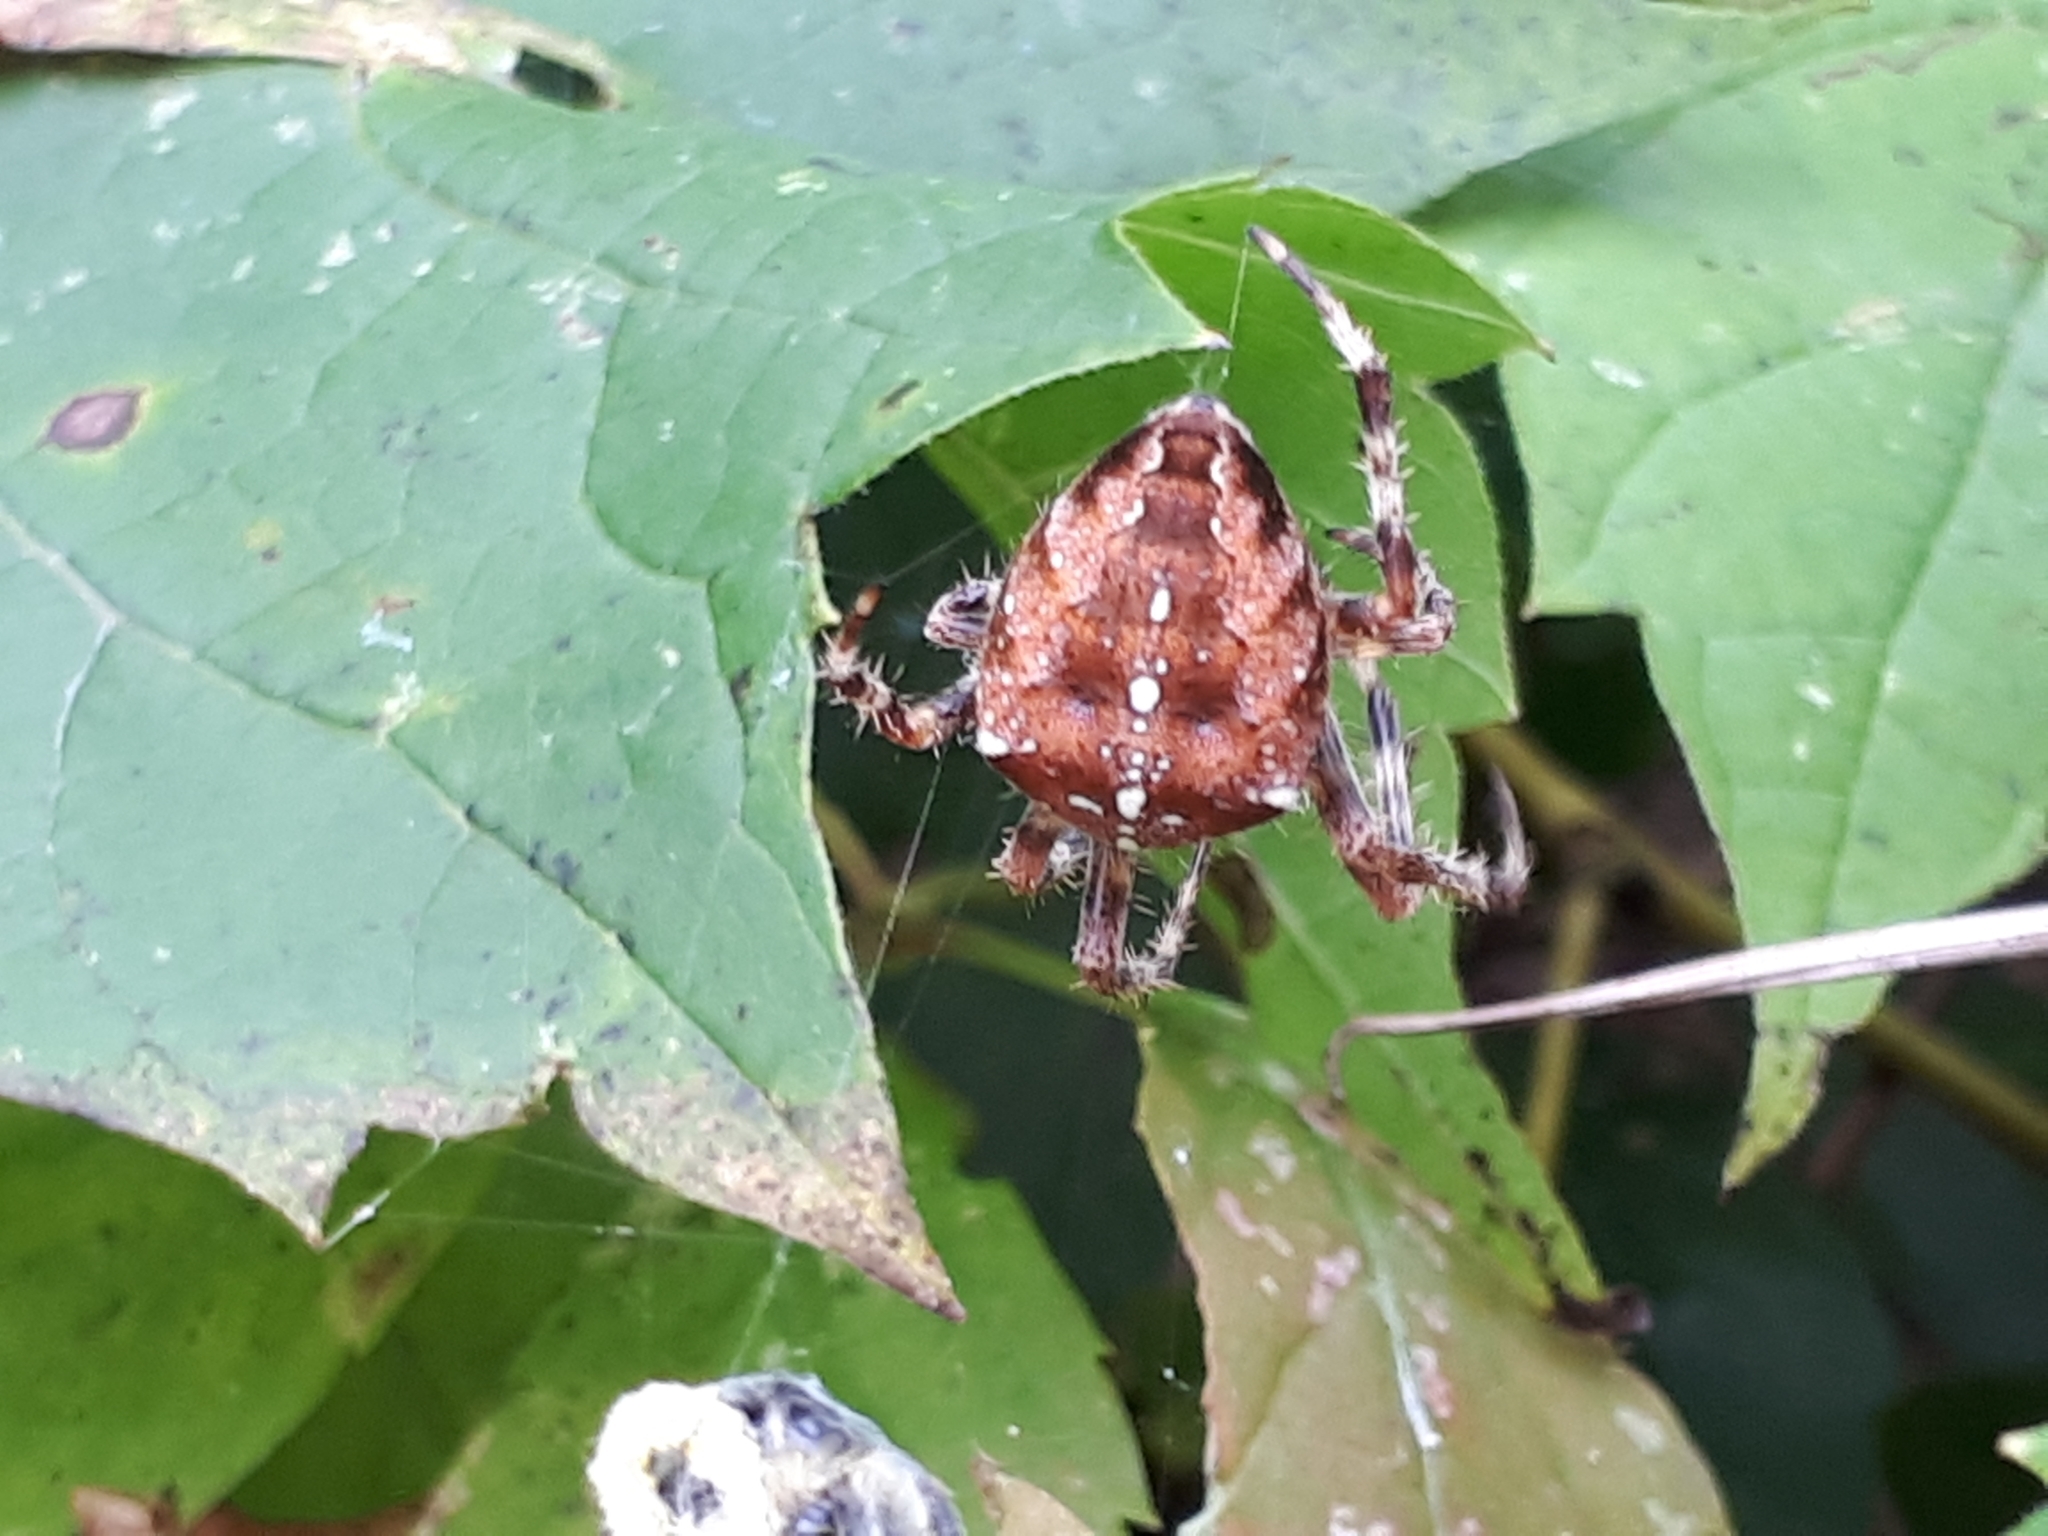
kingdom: Animalia
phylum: Arthropoda
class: Arachnida
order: Araneae
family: Araneidae
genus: Araneus
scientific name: Araneus diadematus
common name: Cross orbweaver
